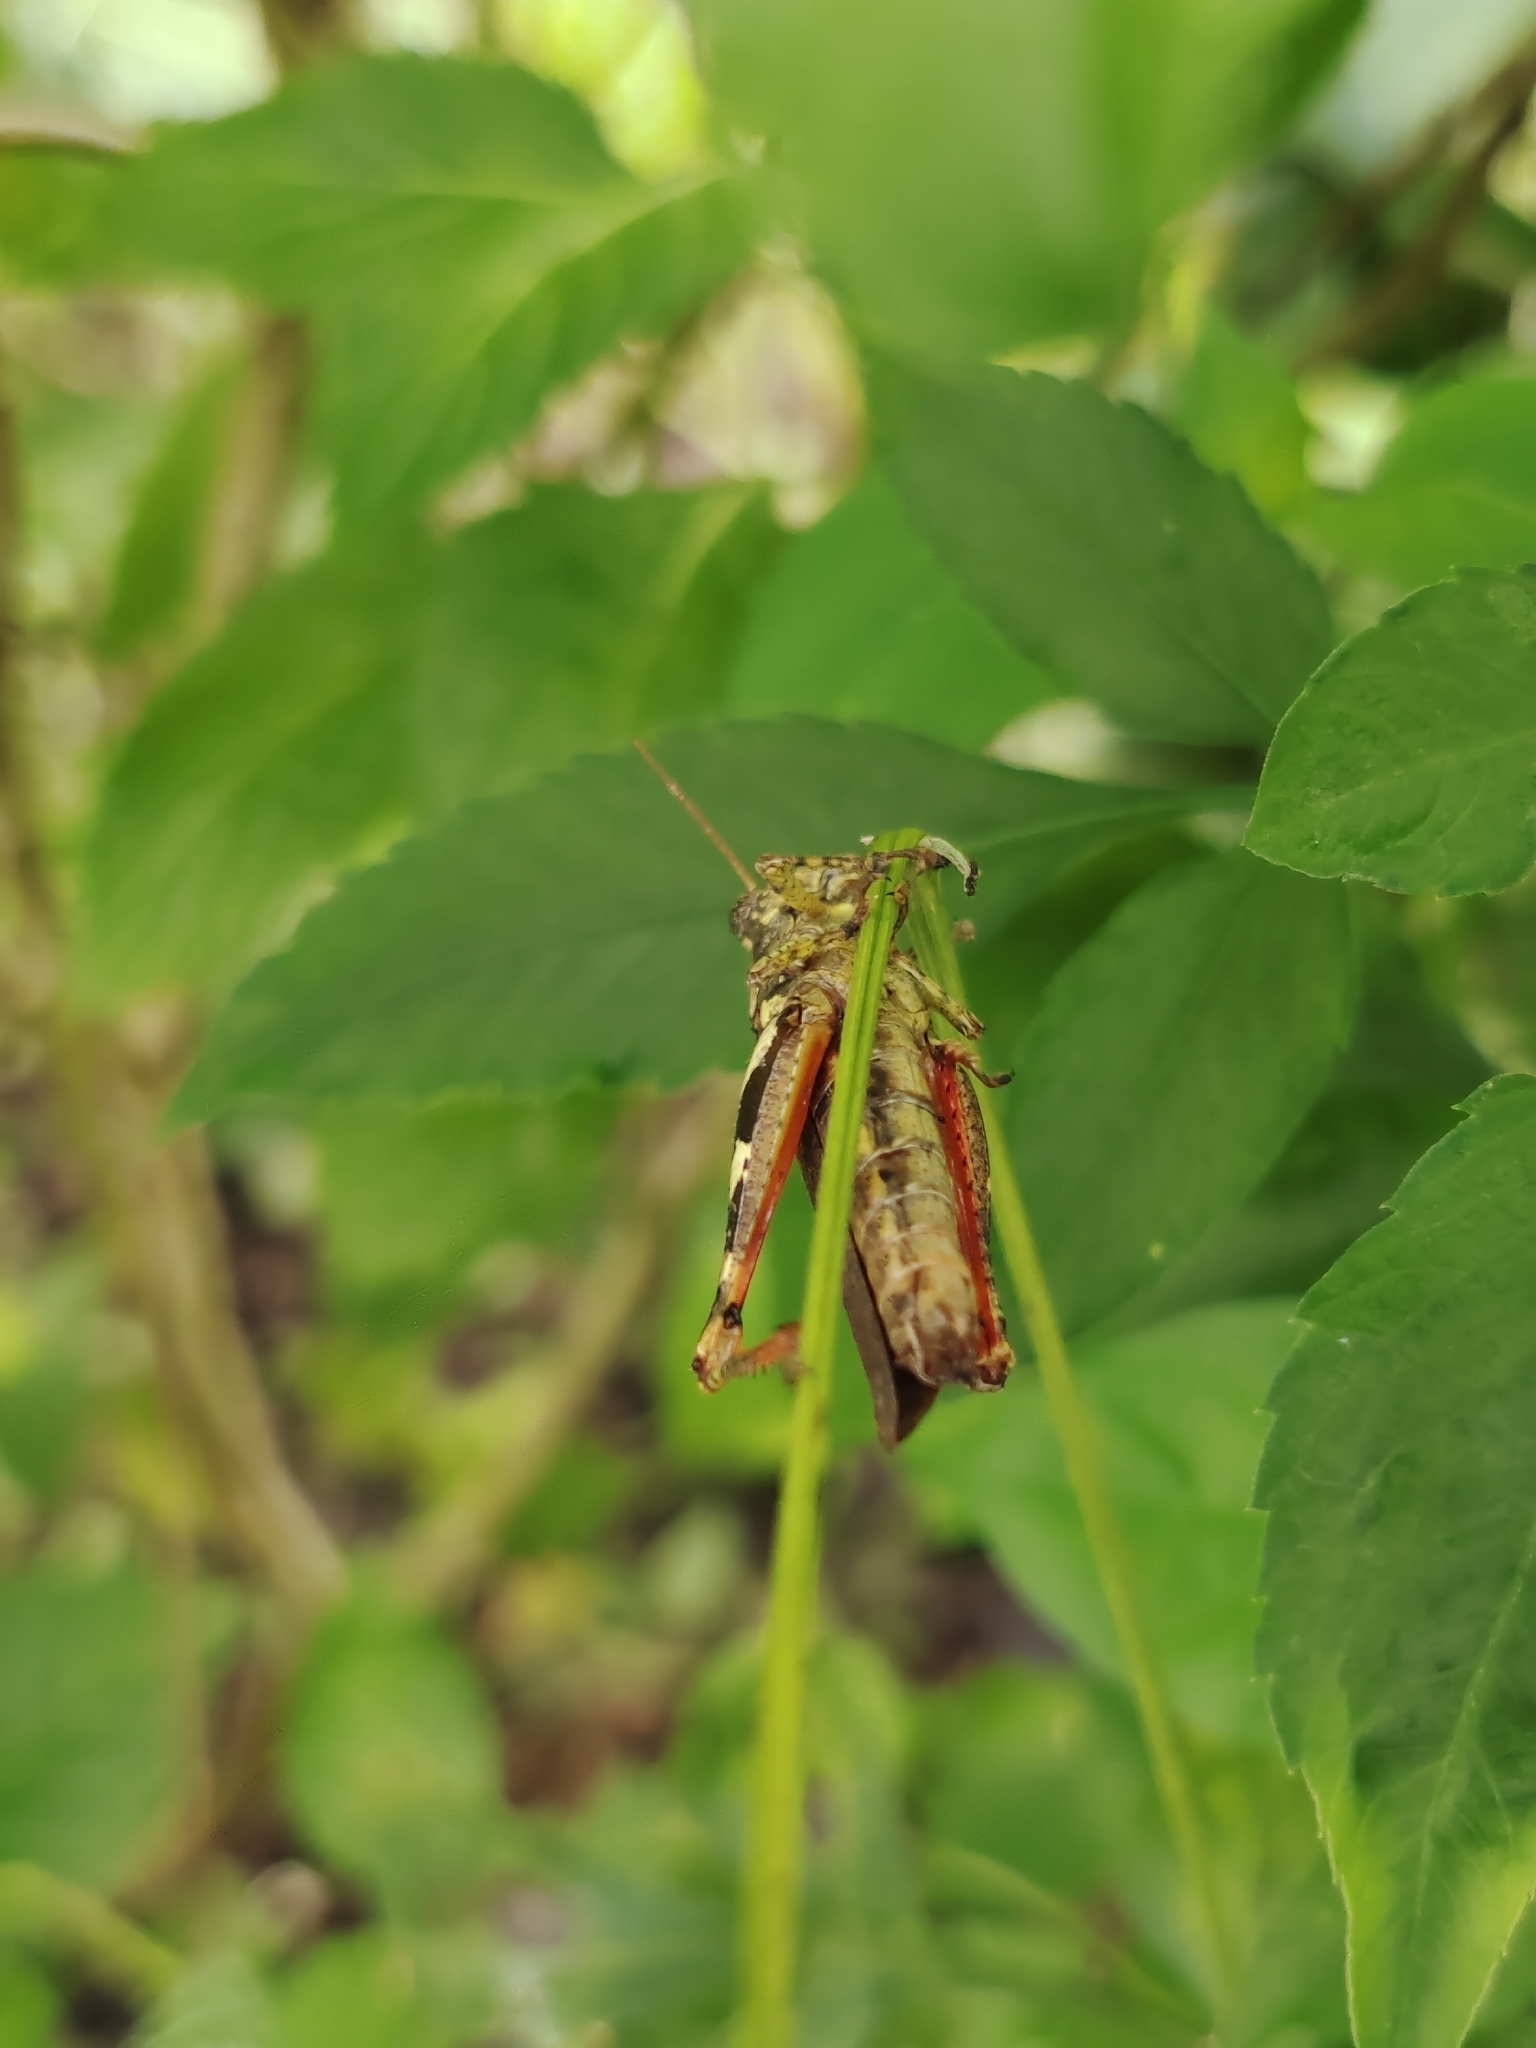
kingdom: Animalia
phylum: Arthropoda
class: Insecta
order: Orthoptera
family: Acrididae
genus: Xenocatantops
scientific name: Xenocatantops humile
